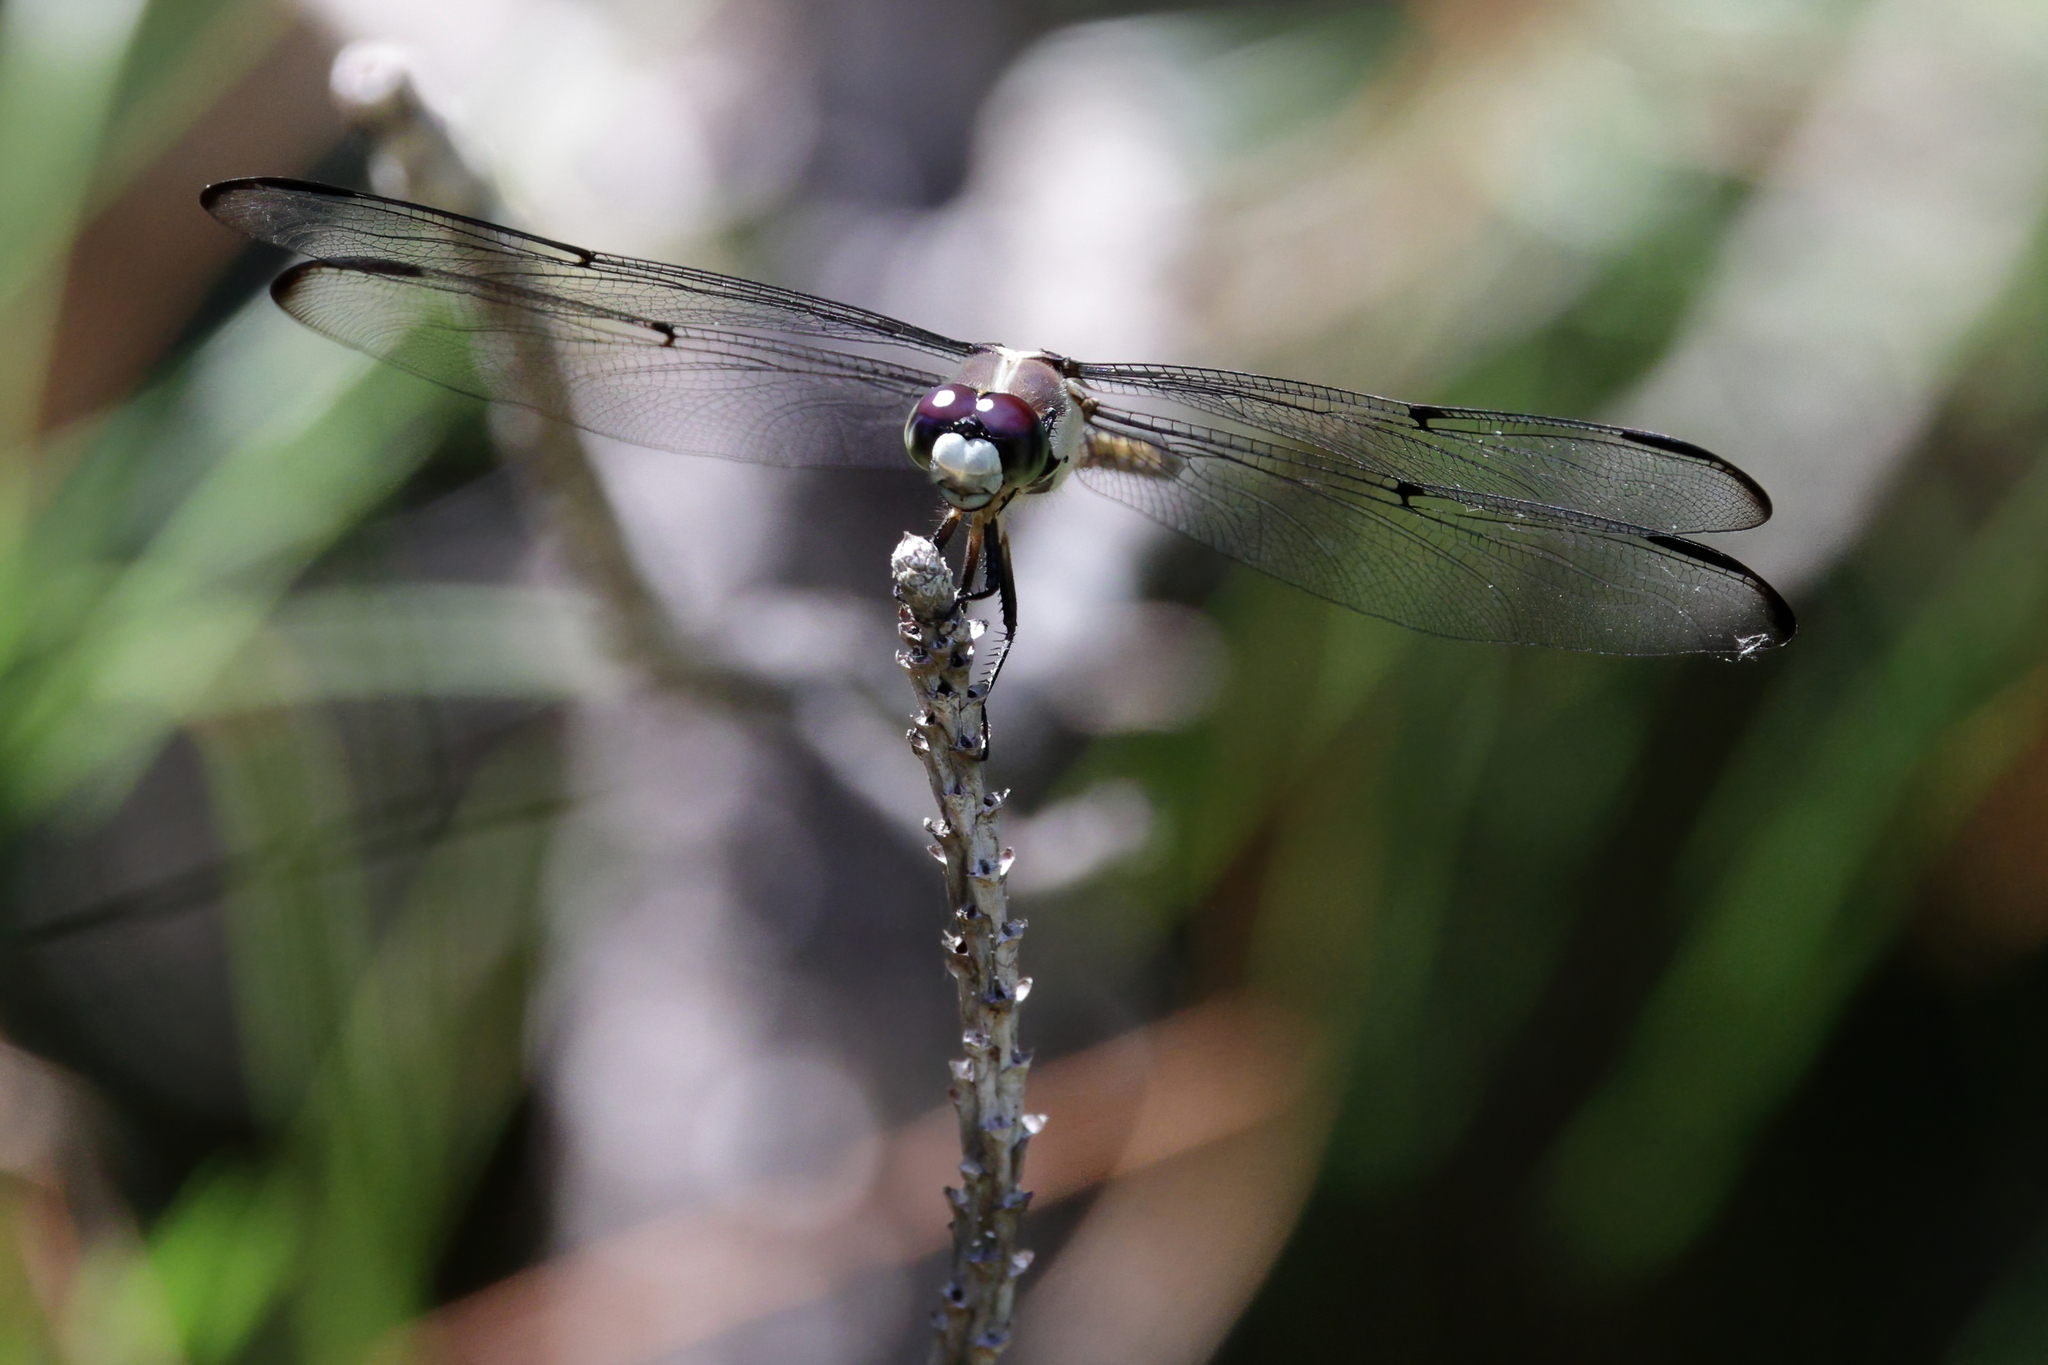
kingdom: Animalia
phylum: Arthropoda
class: Insecta
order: Odonata
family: Libellulidae
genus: Libellula
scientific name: Libellula vibrans
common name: Great blue skimmer
